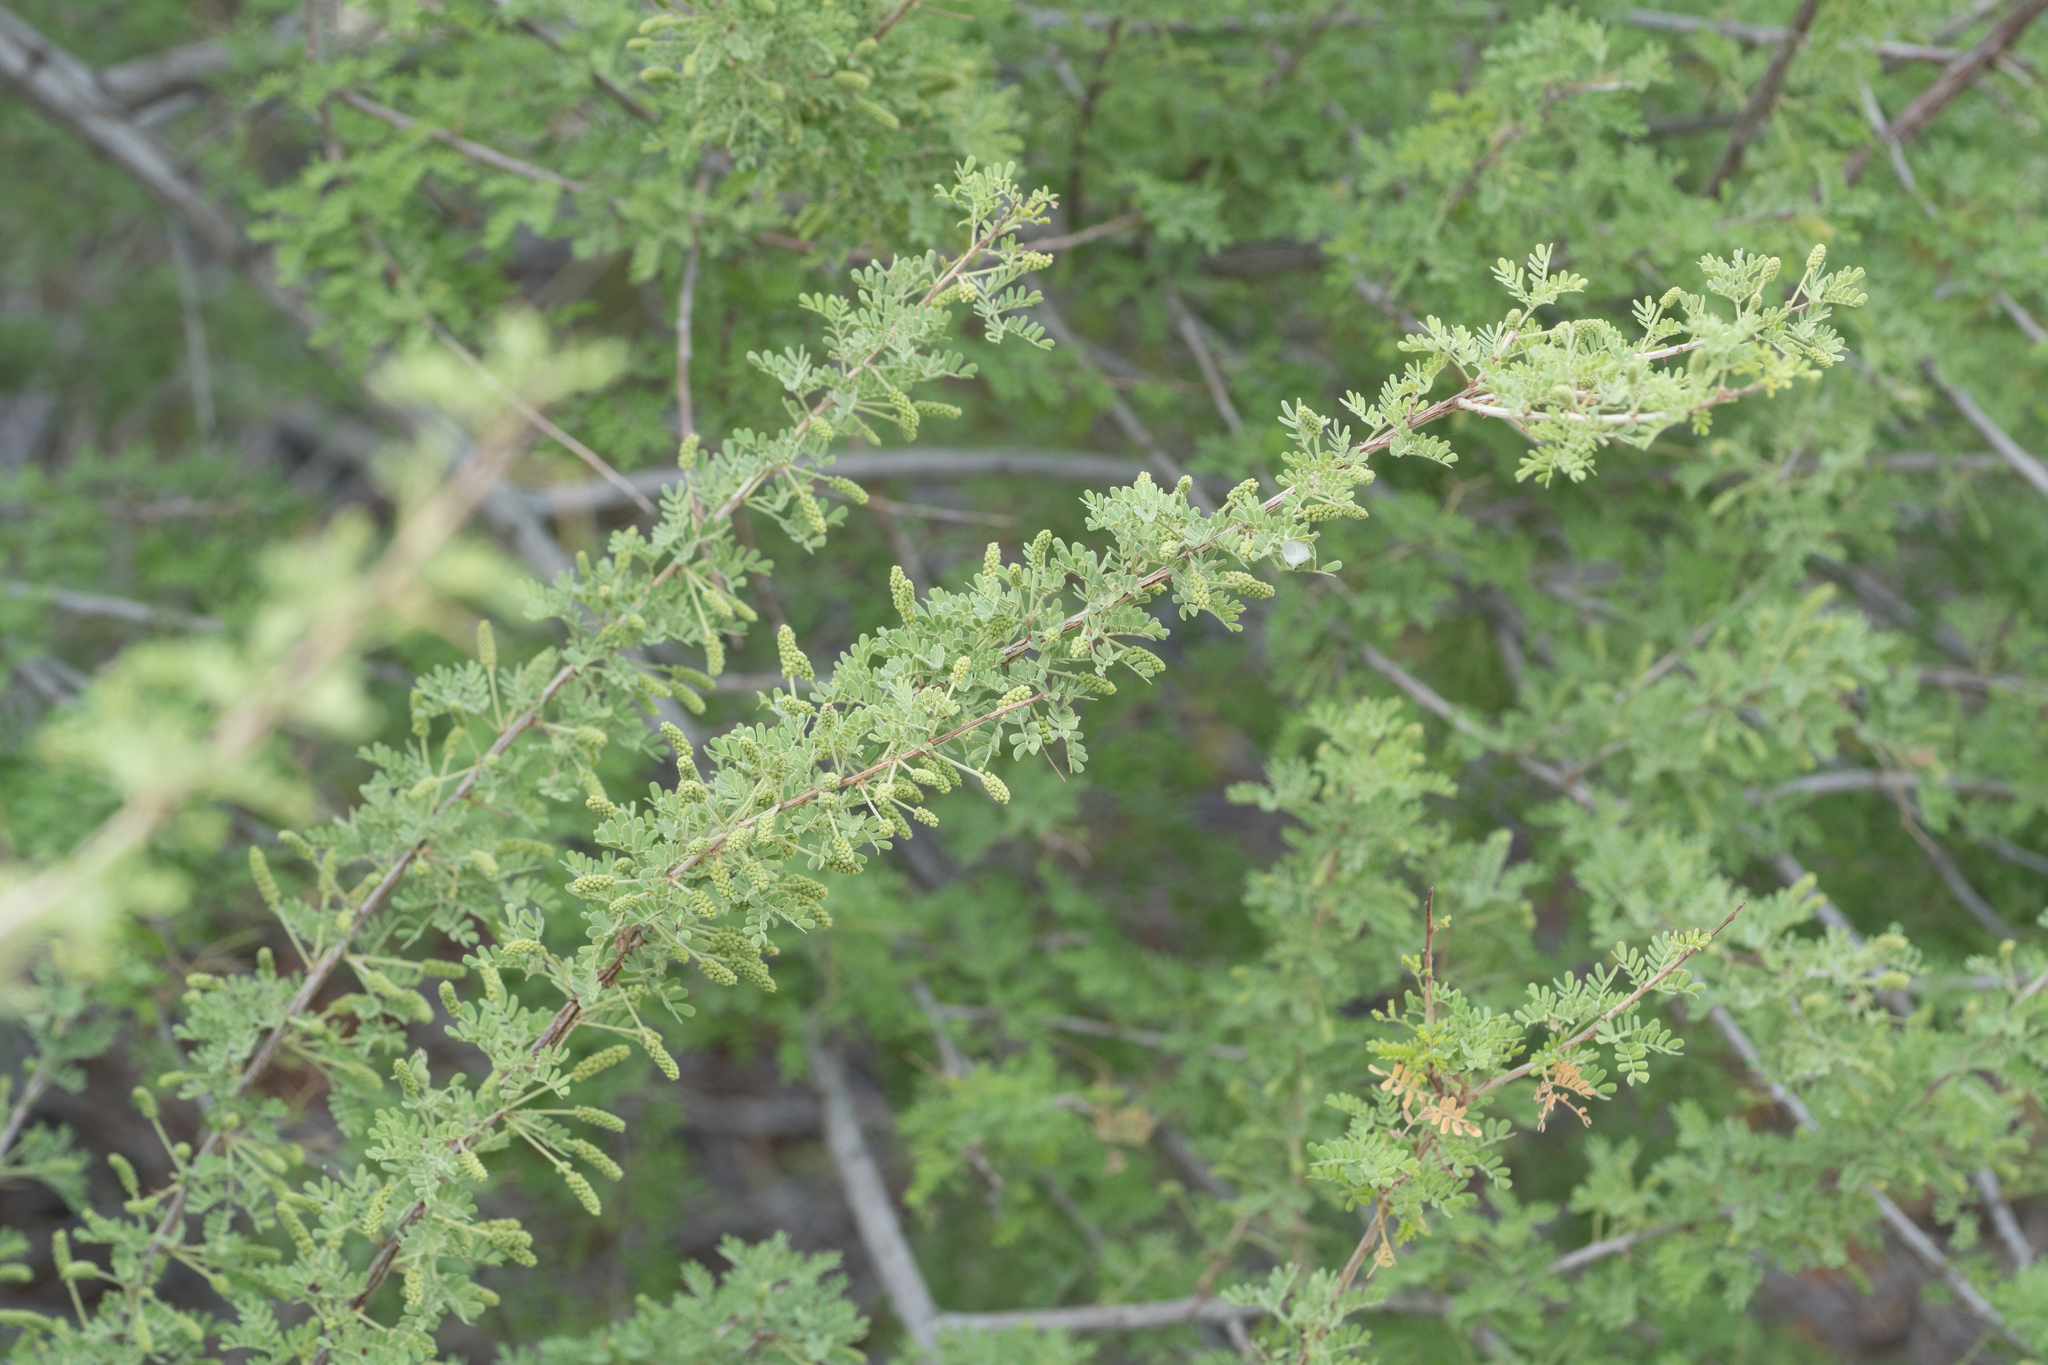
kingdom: Plantae
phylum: Tracheophyta
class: Magnoliopsida
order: Fabales
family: Fabaceae
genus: Senegalia
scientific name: Senegalia greggii
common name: Texas-mimosa
